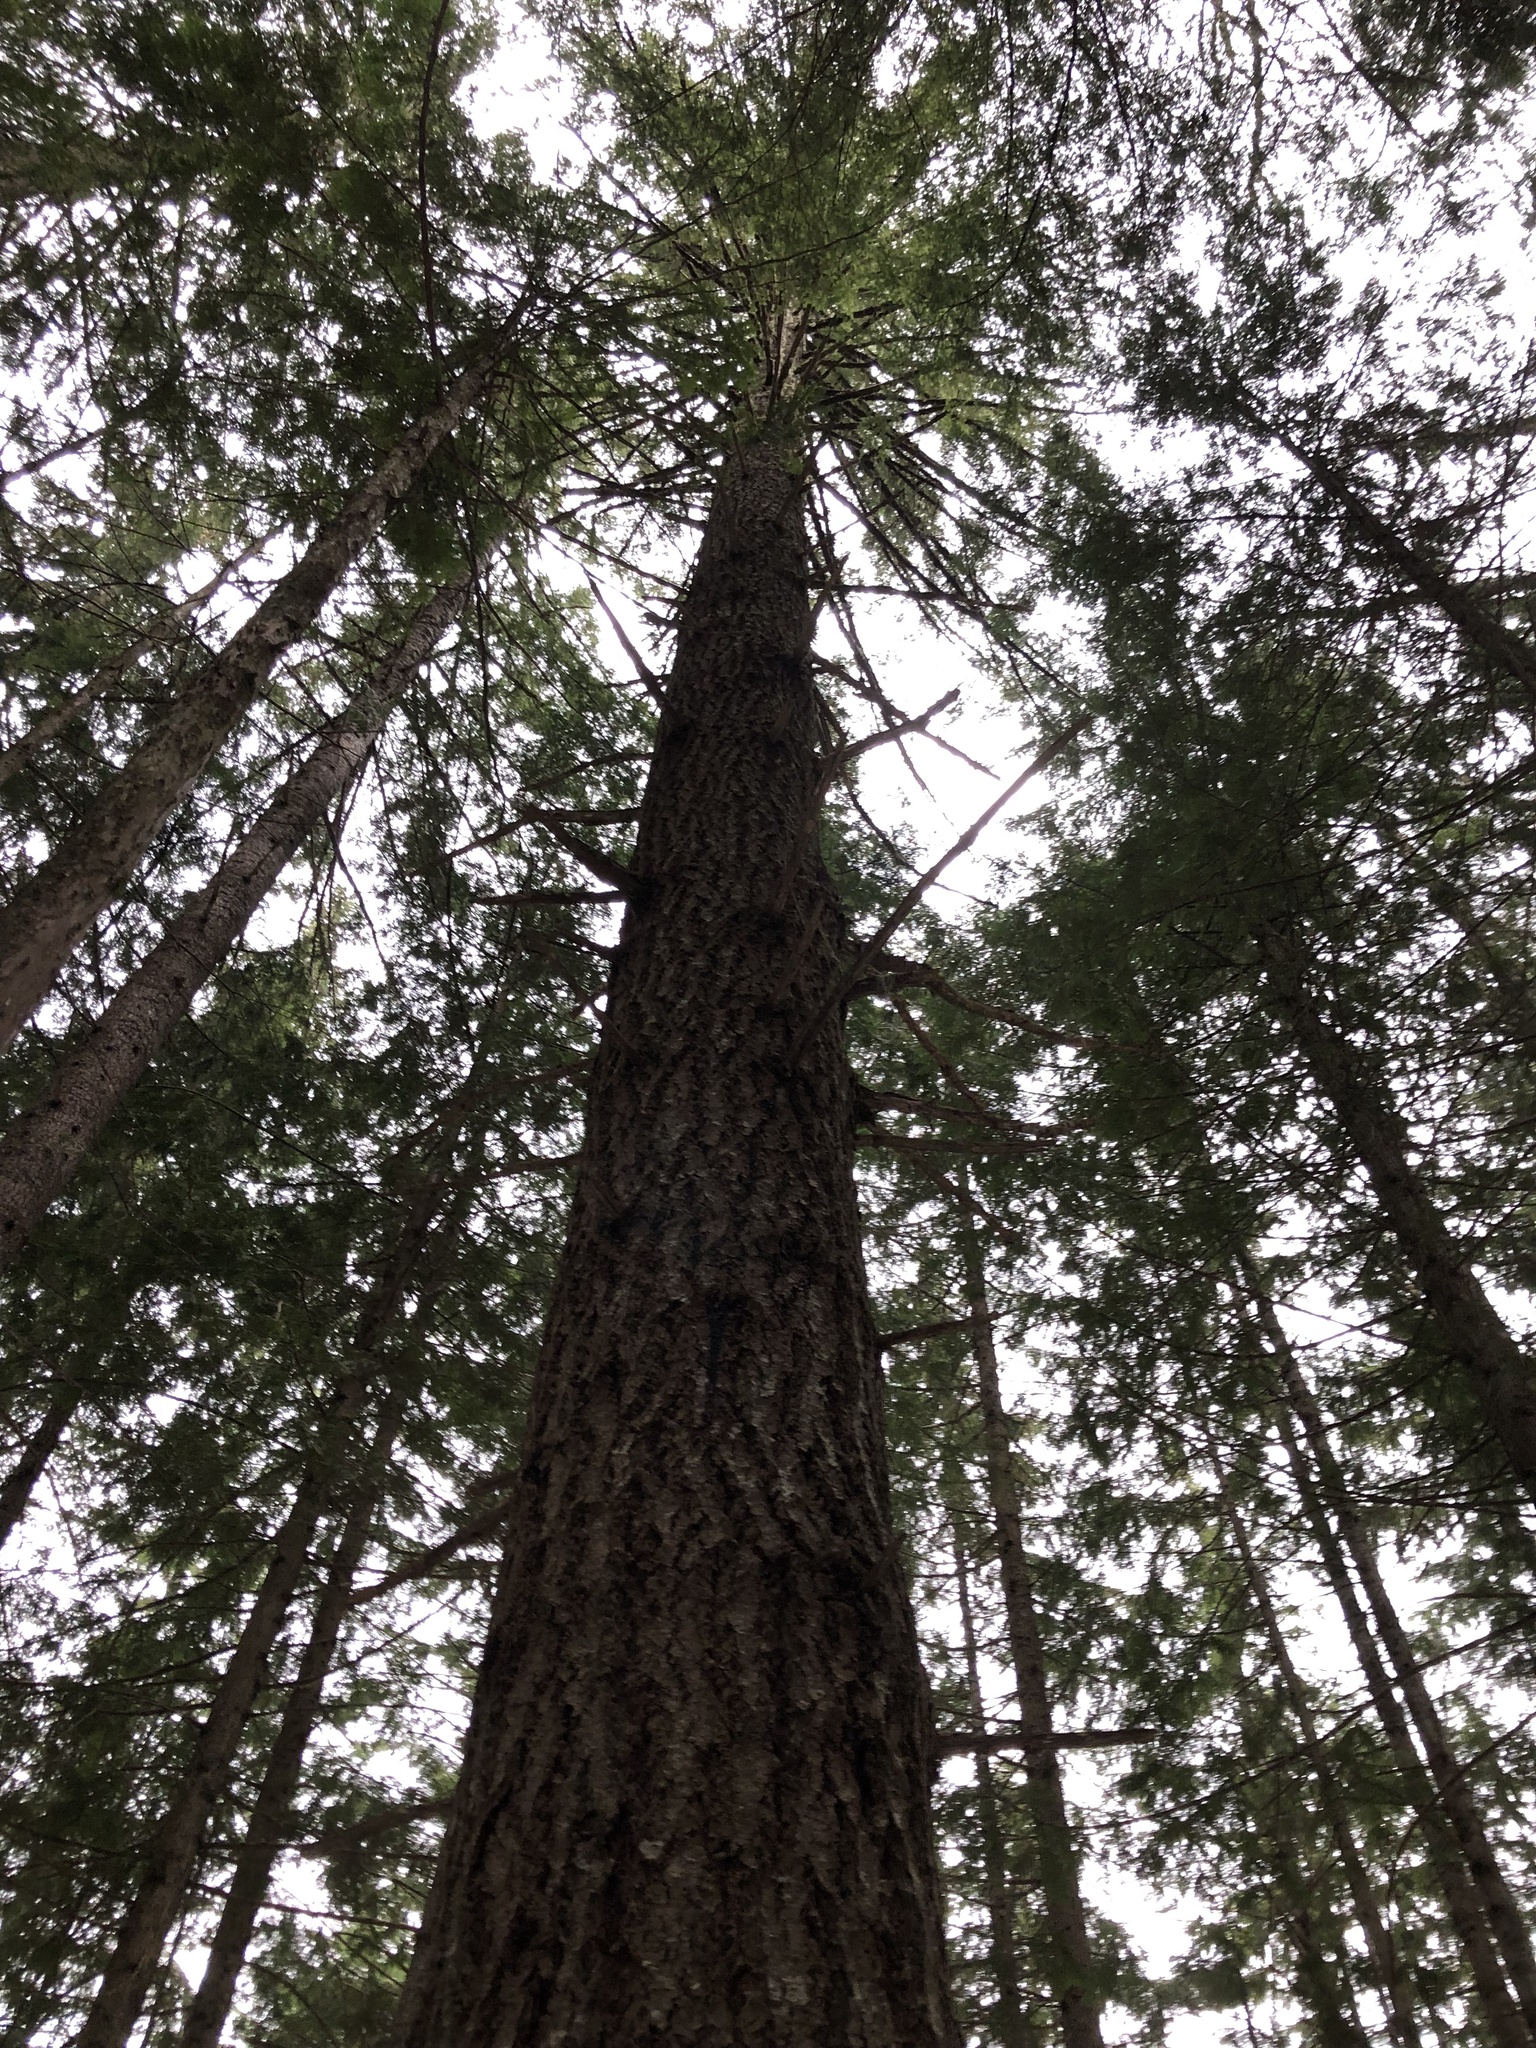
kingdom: Plantae
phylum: Tracheophyta
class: Pinopsida
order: Pinales
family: Pinaceae
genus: Pseudotsuga
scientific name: Pseudotsuga menziesii
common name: Douglas fir
